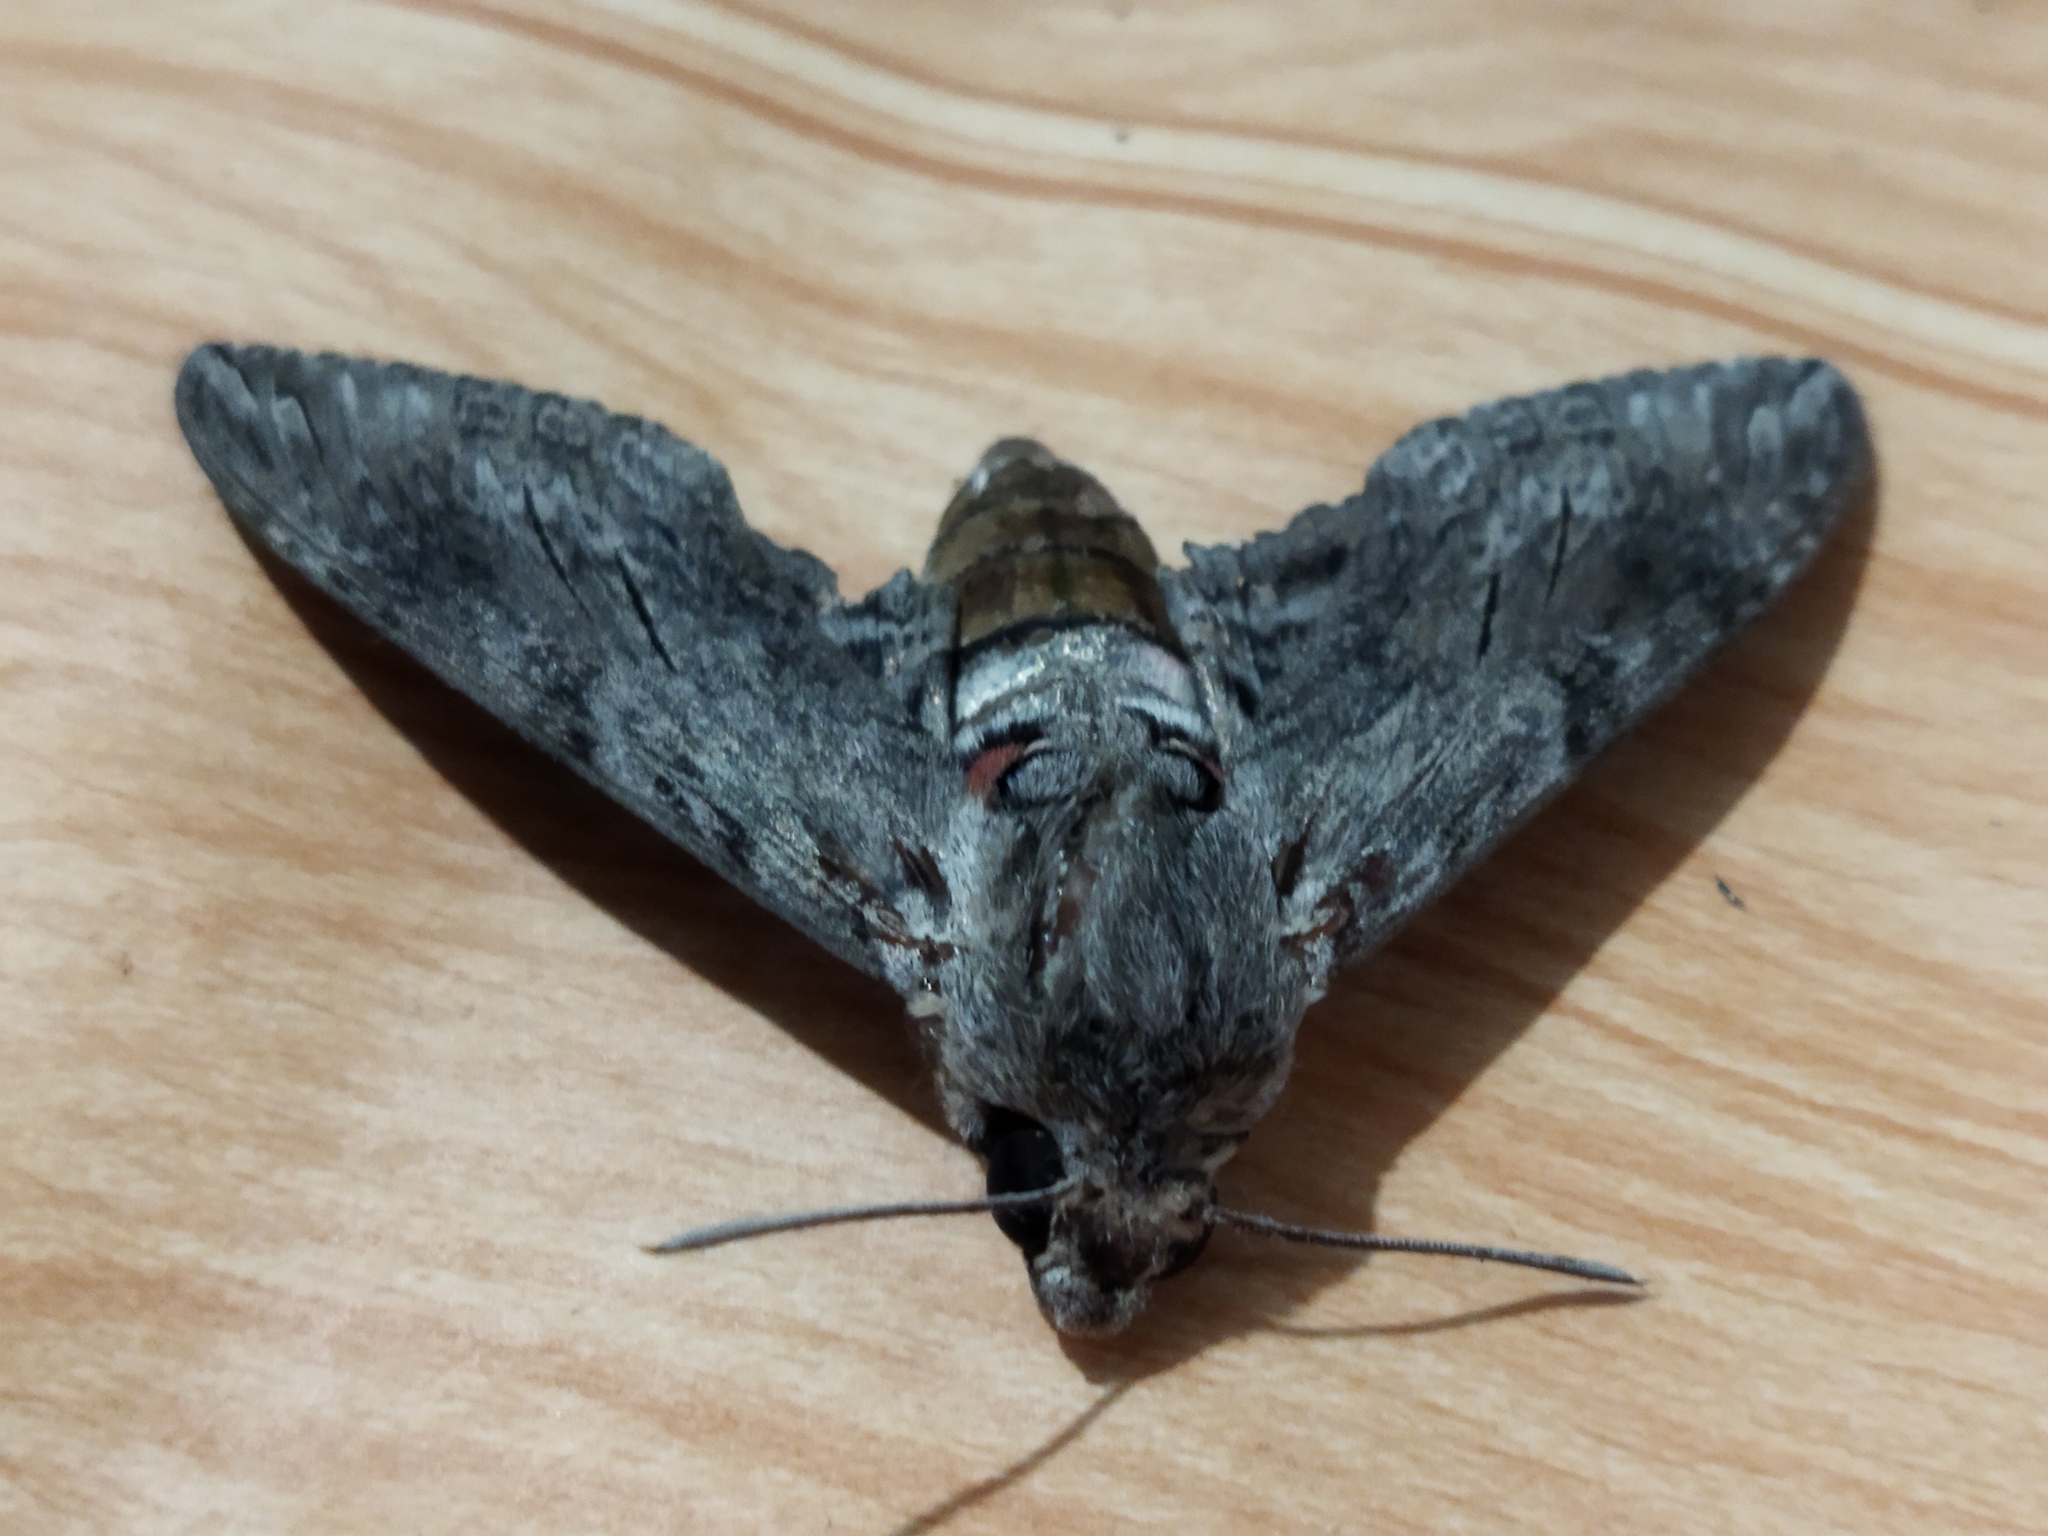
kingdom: Animalia
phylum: Arthropoda
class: Insecta
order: Lepidoptera
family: Sphingidae
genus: Agrius
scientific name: Agrius convolvuli
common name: Convolvulus hawkmoth
